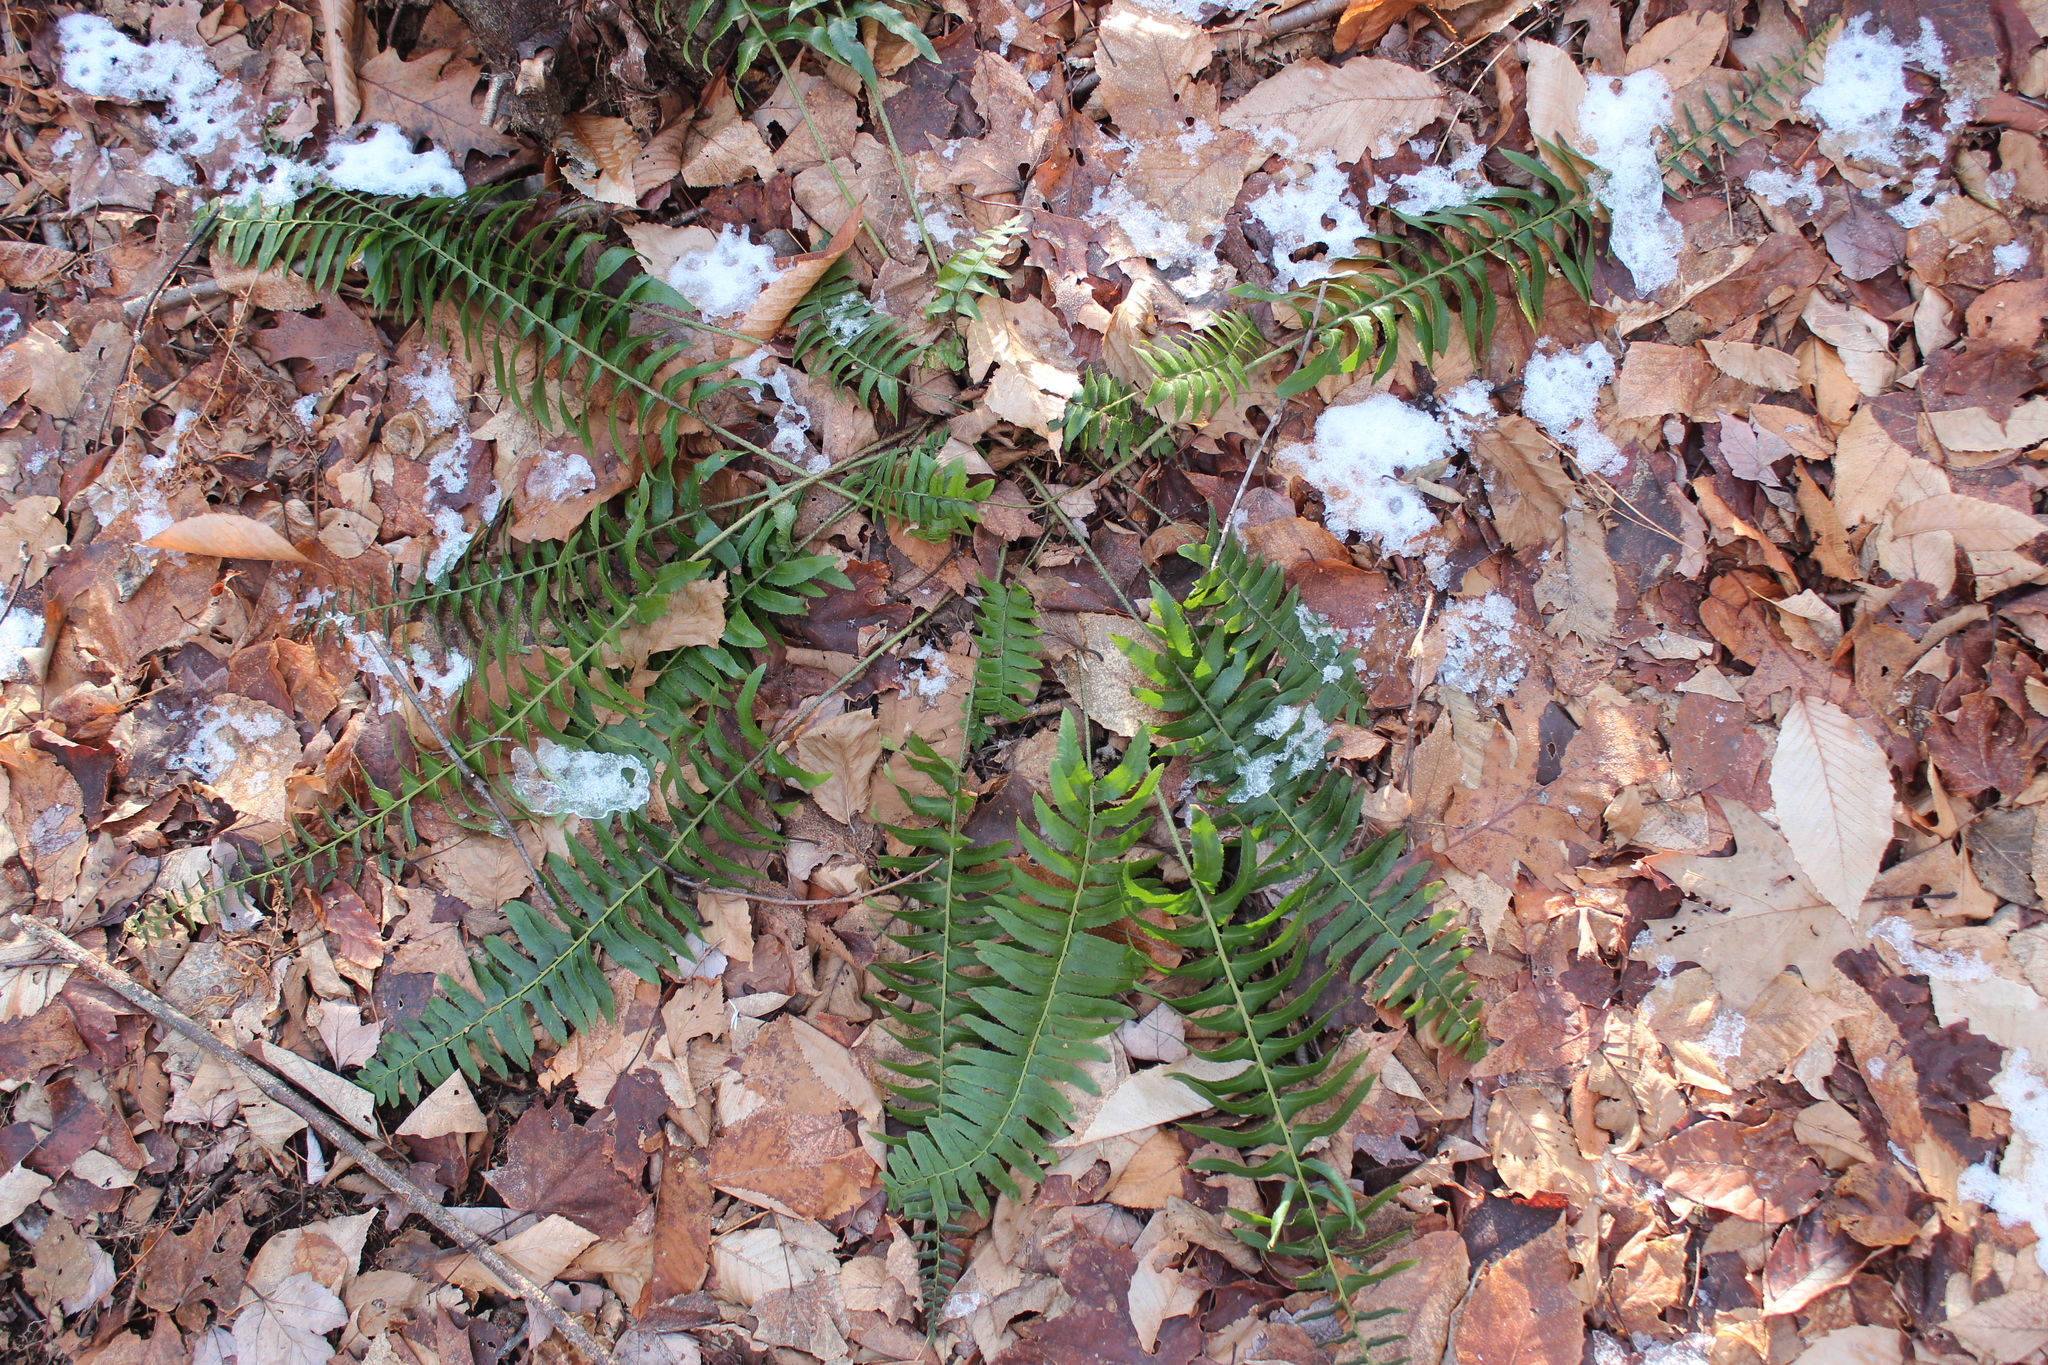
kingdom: Plantae
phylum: Tracheophyta
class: Polypodiopsida
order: Polypodiales
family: Dryopteridaceae
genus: Polystichum
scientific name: Polystichum acrostichoides
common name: Christmas fern
